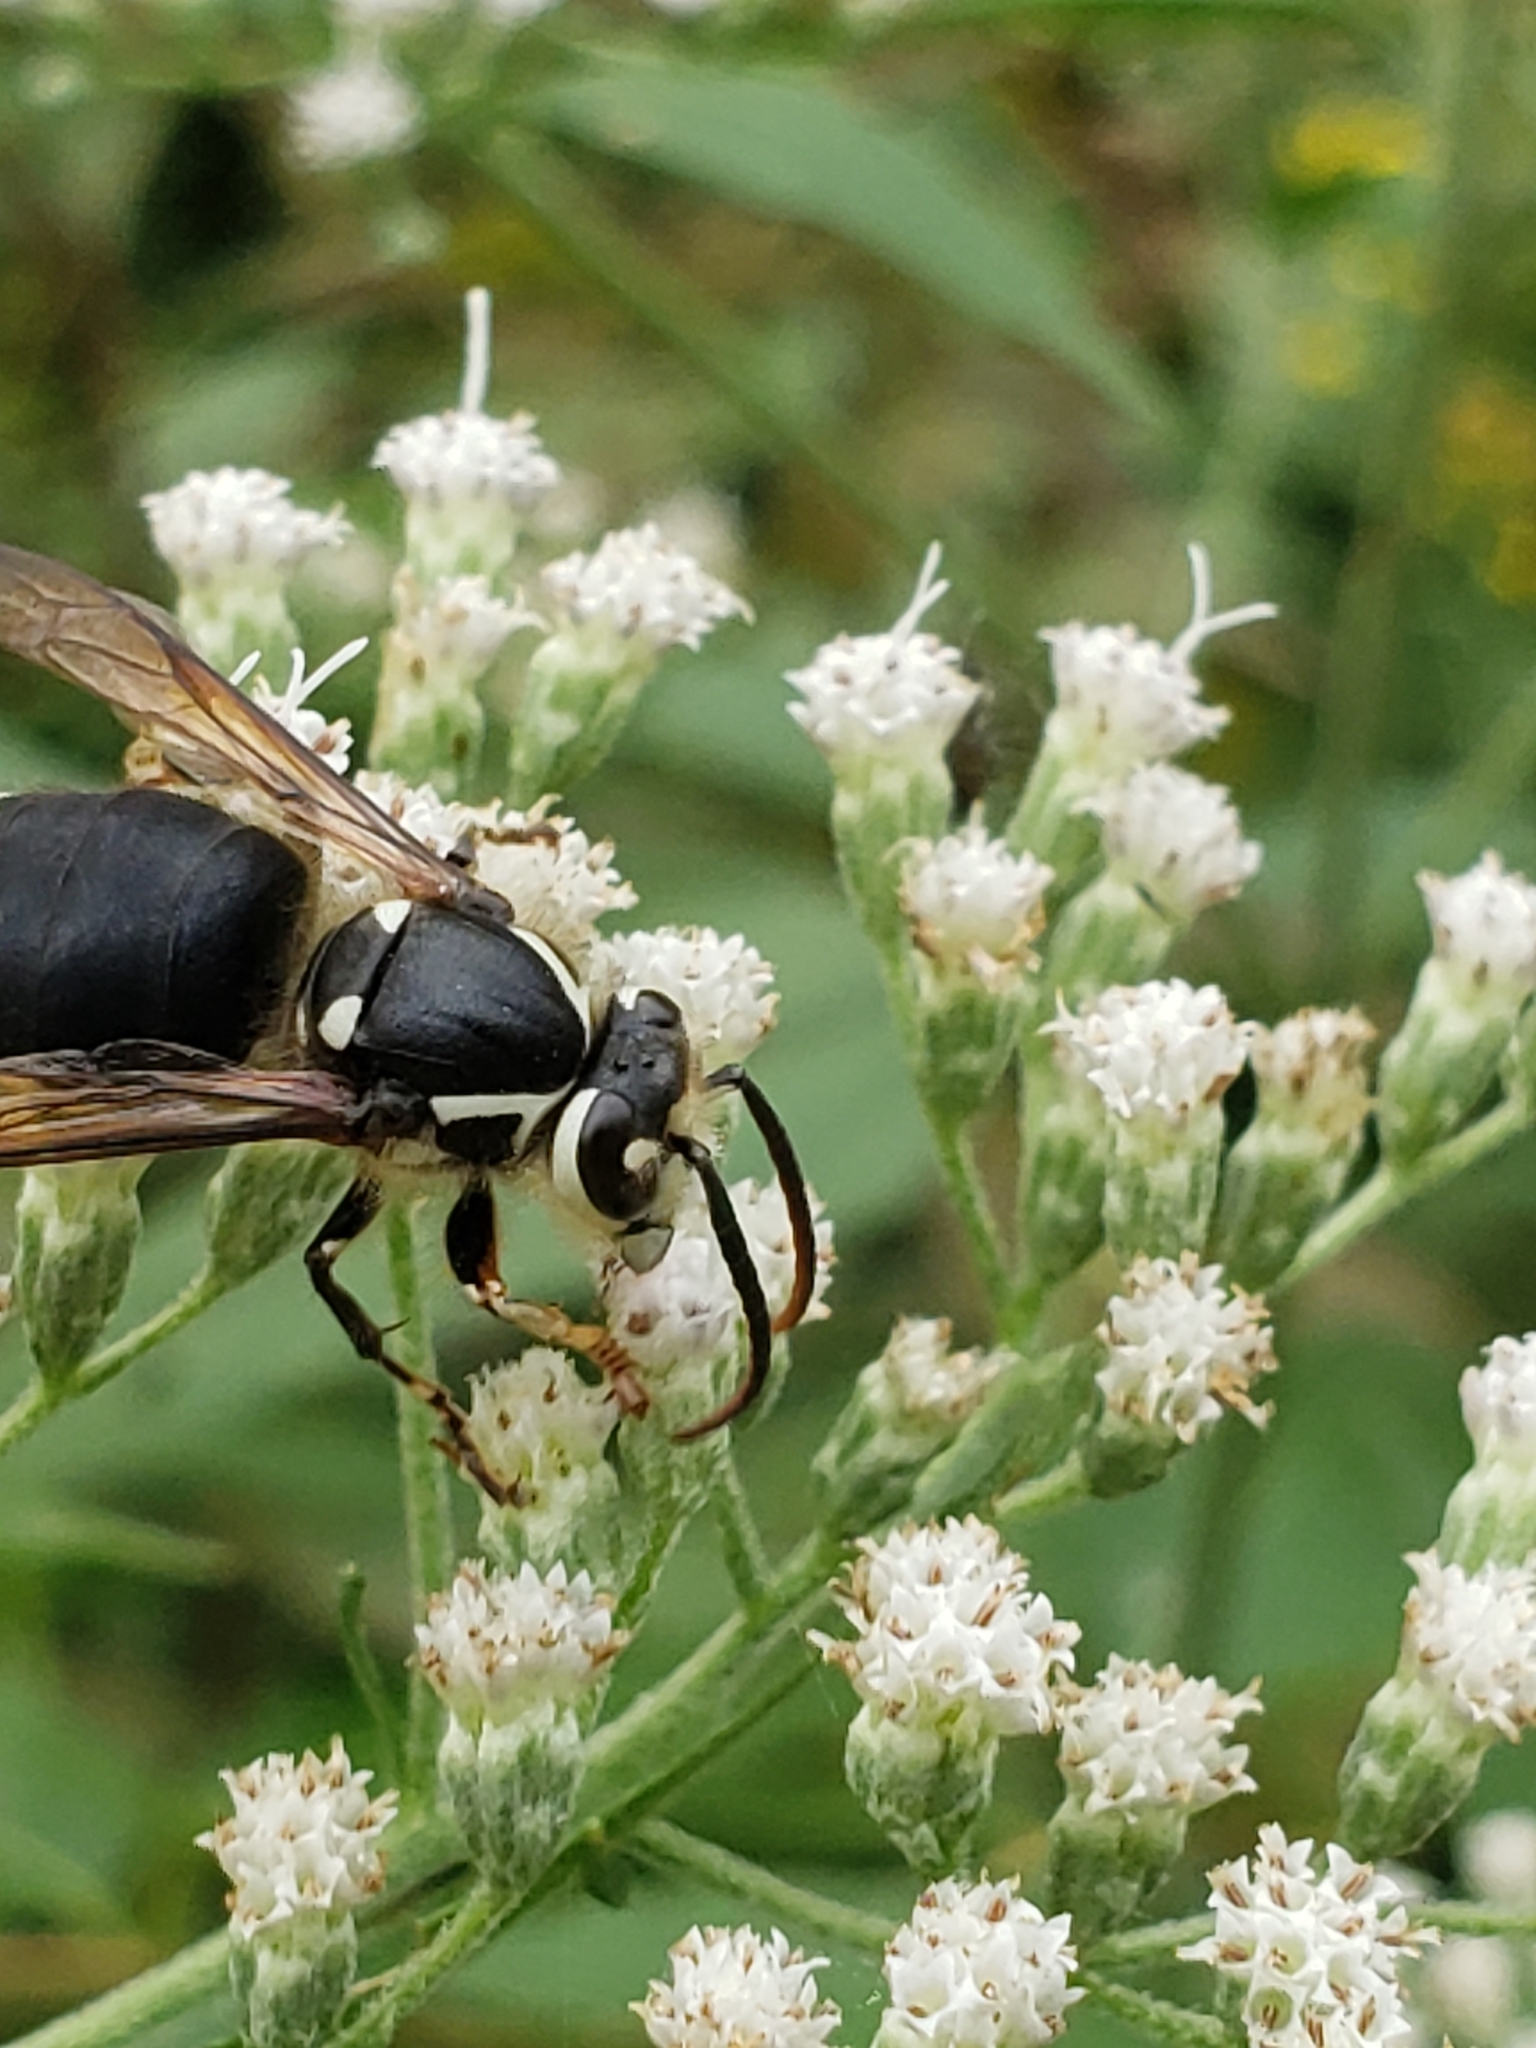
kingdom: Animalia
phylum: Arthropoda
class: Insecta
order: Hymenoptera
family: Vespidae
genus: Dolichovespula
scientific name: Dolichovespula maculata
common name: Bald-faced hornet
